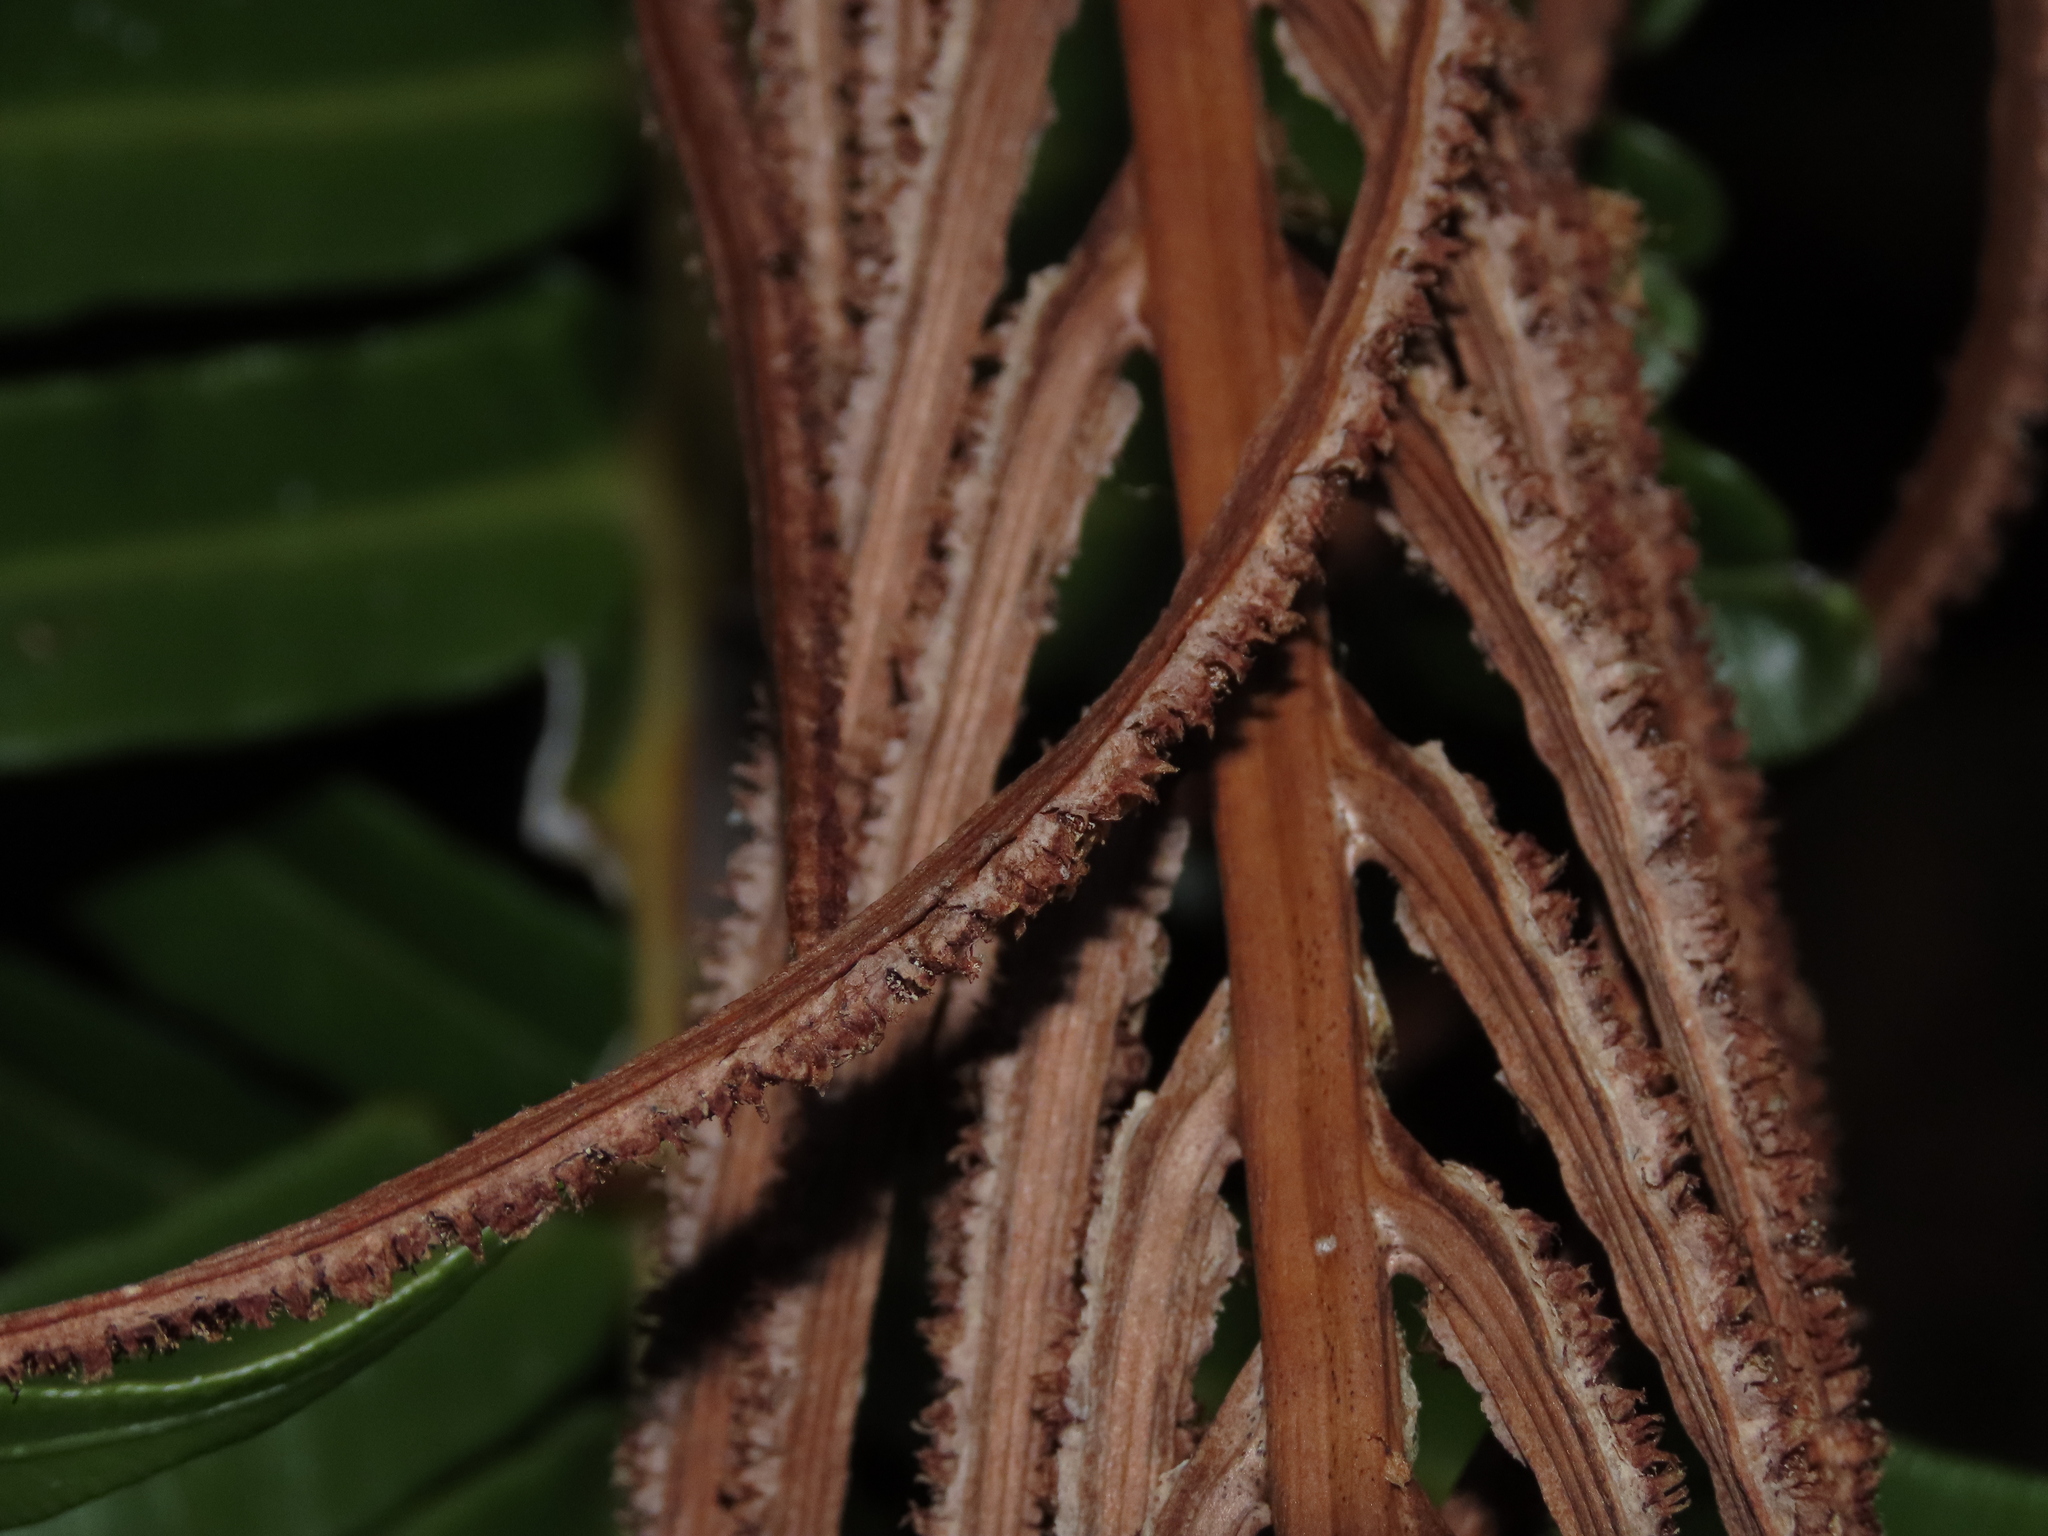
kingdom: Plantae
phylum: Tracheophyta
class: Polypodiopsida
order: Polypodiales
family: Blechnaceae
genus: Lomariocycas
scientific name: Lomariocycas magellanica
